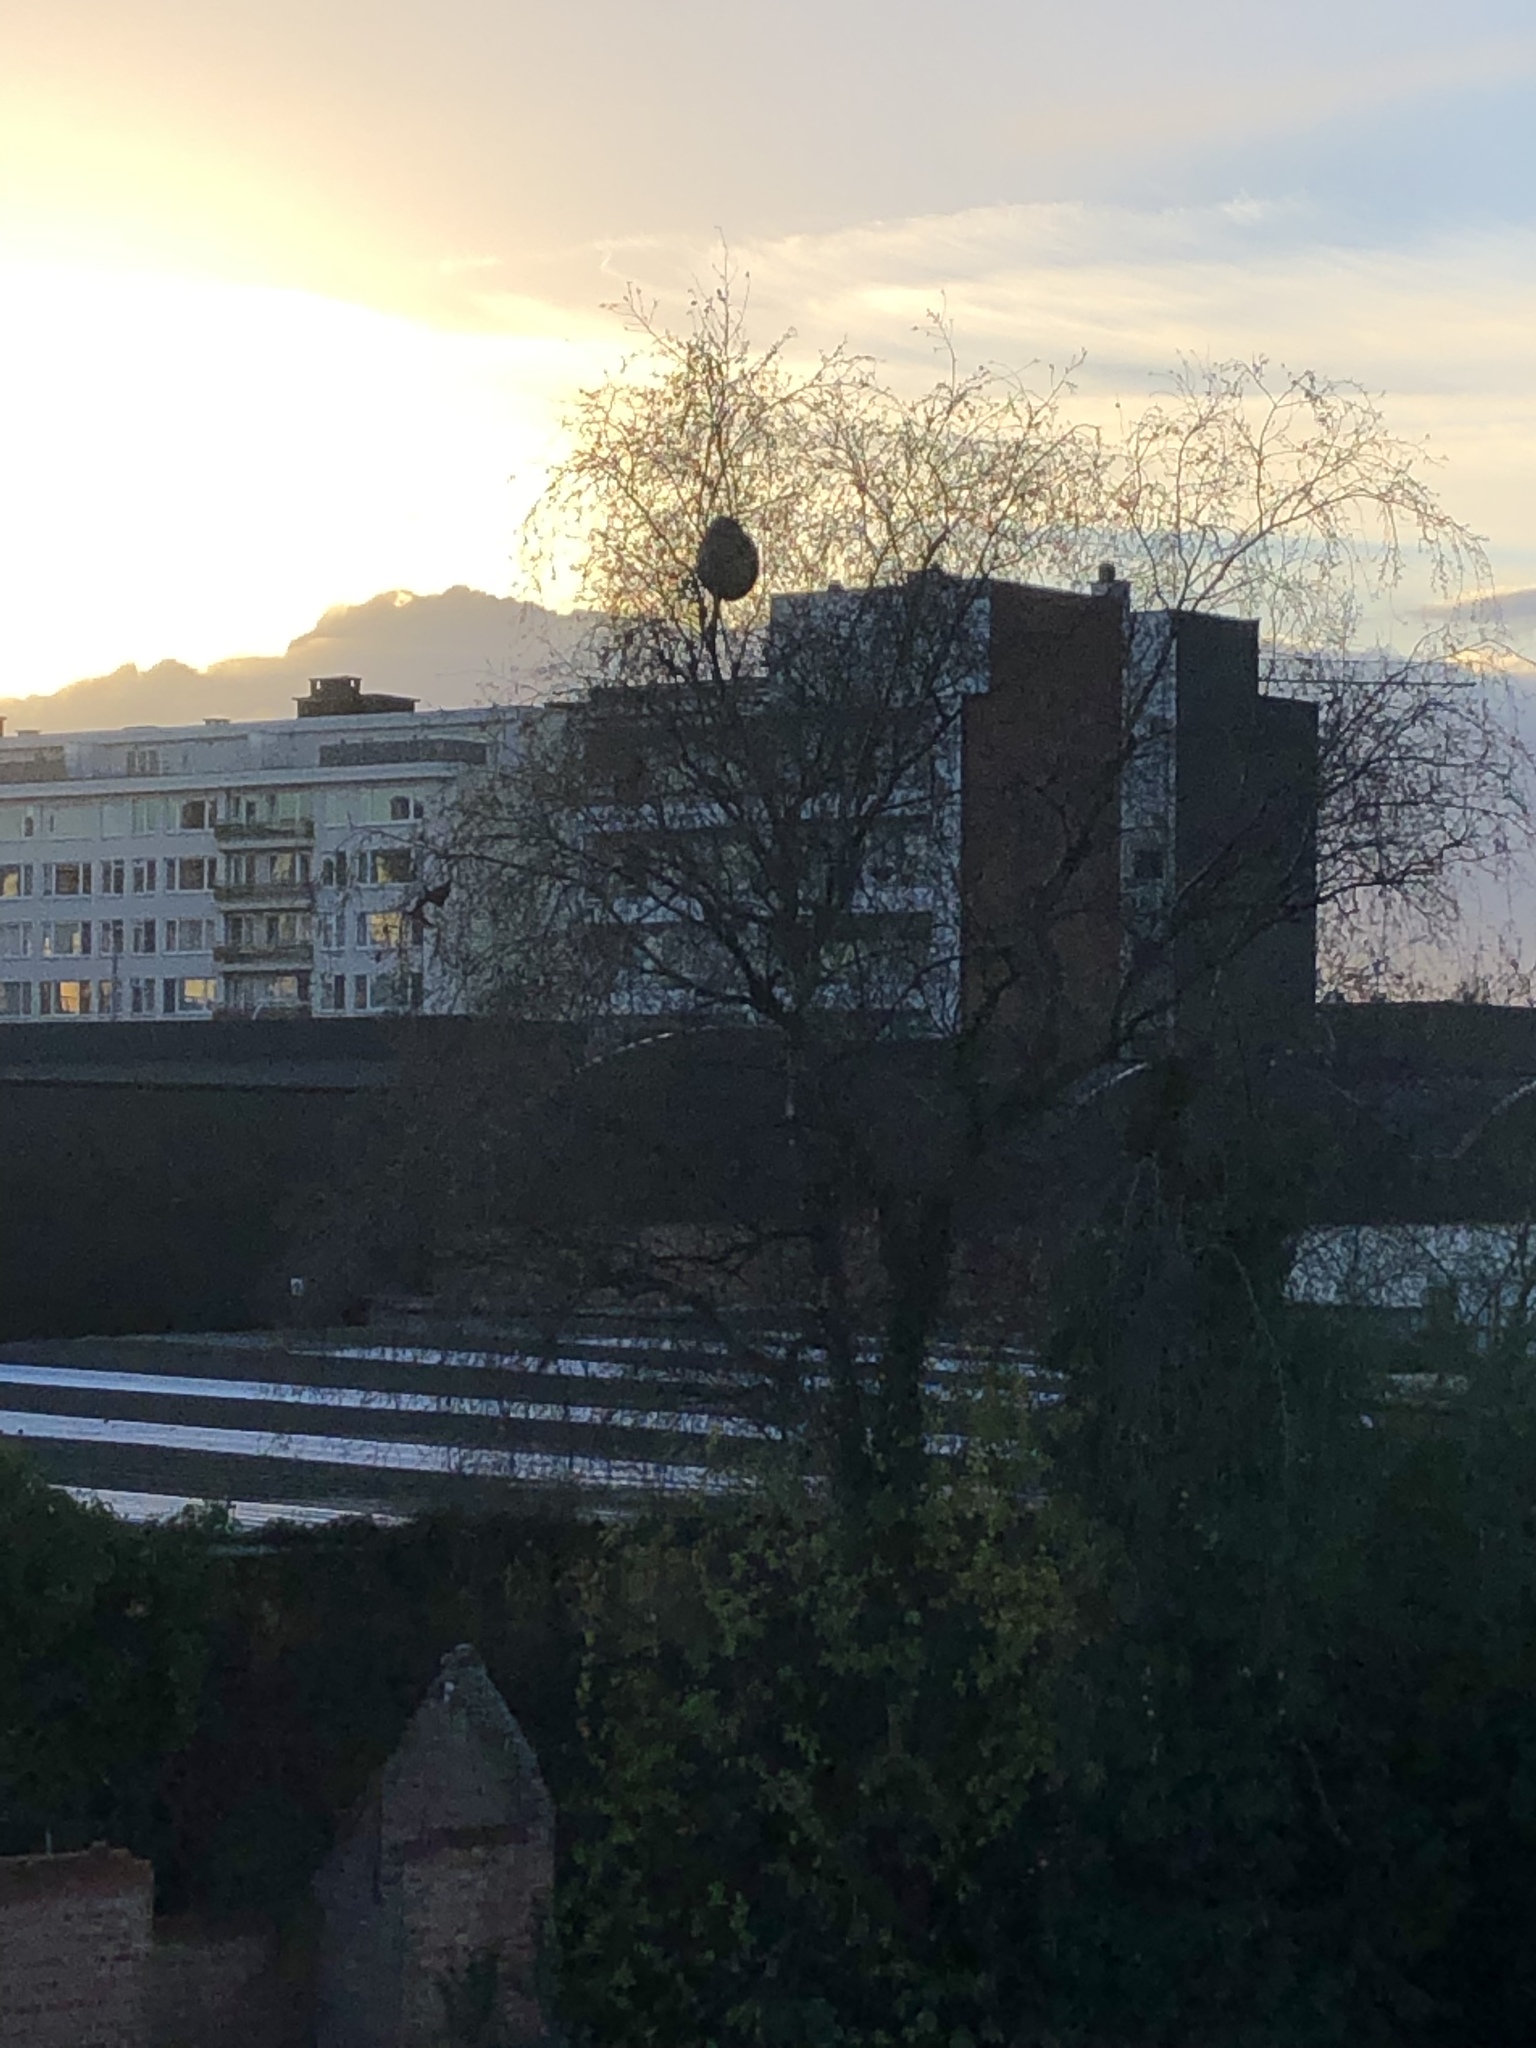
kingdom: Animalia
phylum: Arthropoda
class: Insecta
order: Hymenoptera
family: Vespidae
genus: Vespa
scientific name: Vespa velutina
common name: Asian hornet
